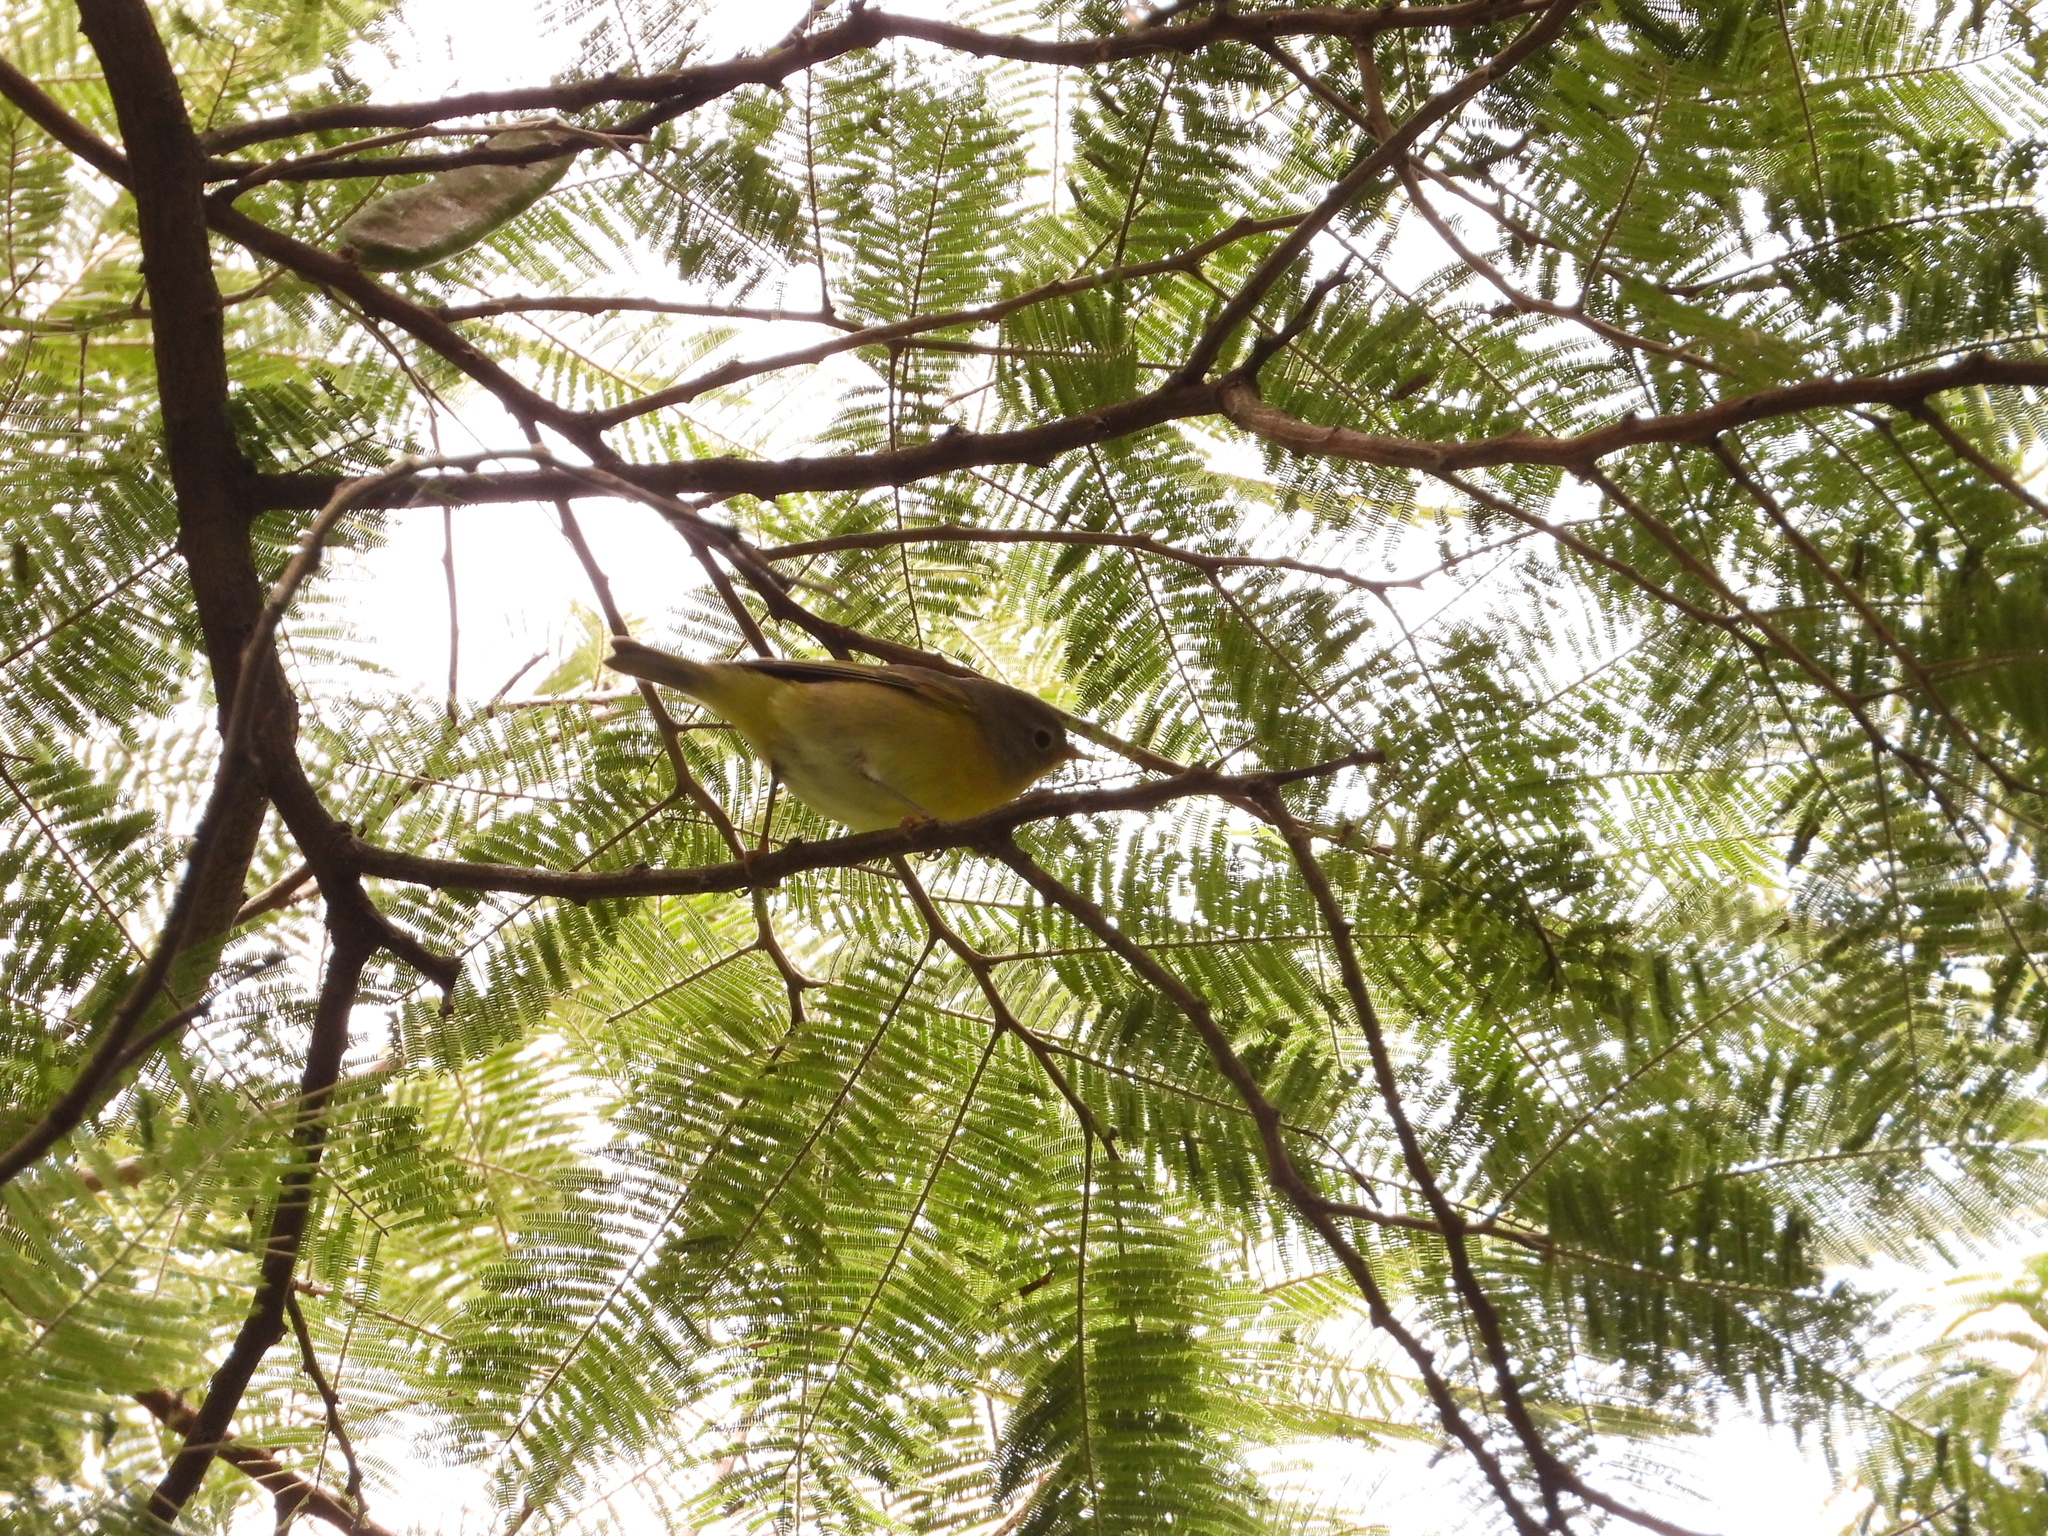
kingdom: Animalia
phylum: Chordata
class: Aves
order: Passeriformes
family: Parulidae
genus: Leiothlypis
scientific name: Leiothlypis ruficapilla
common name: Nashville warbler
